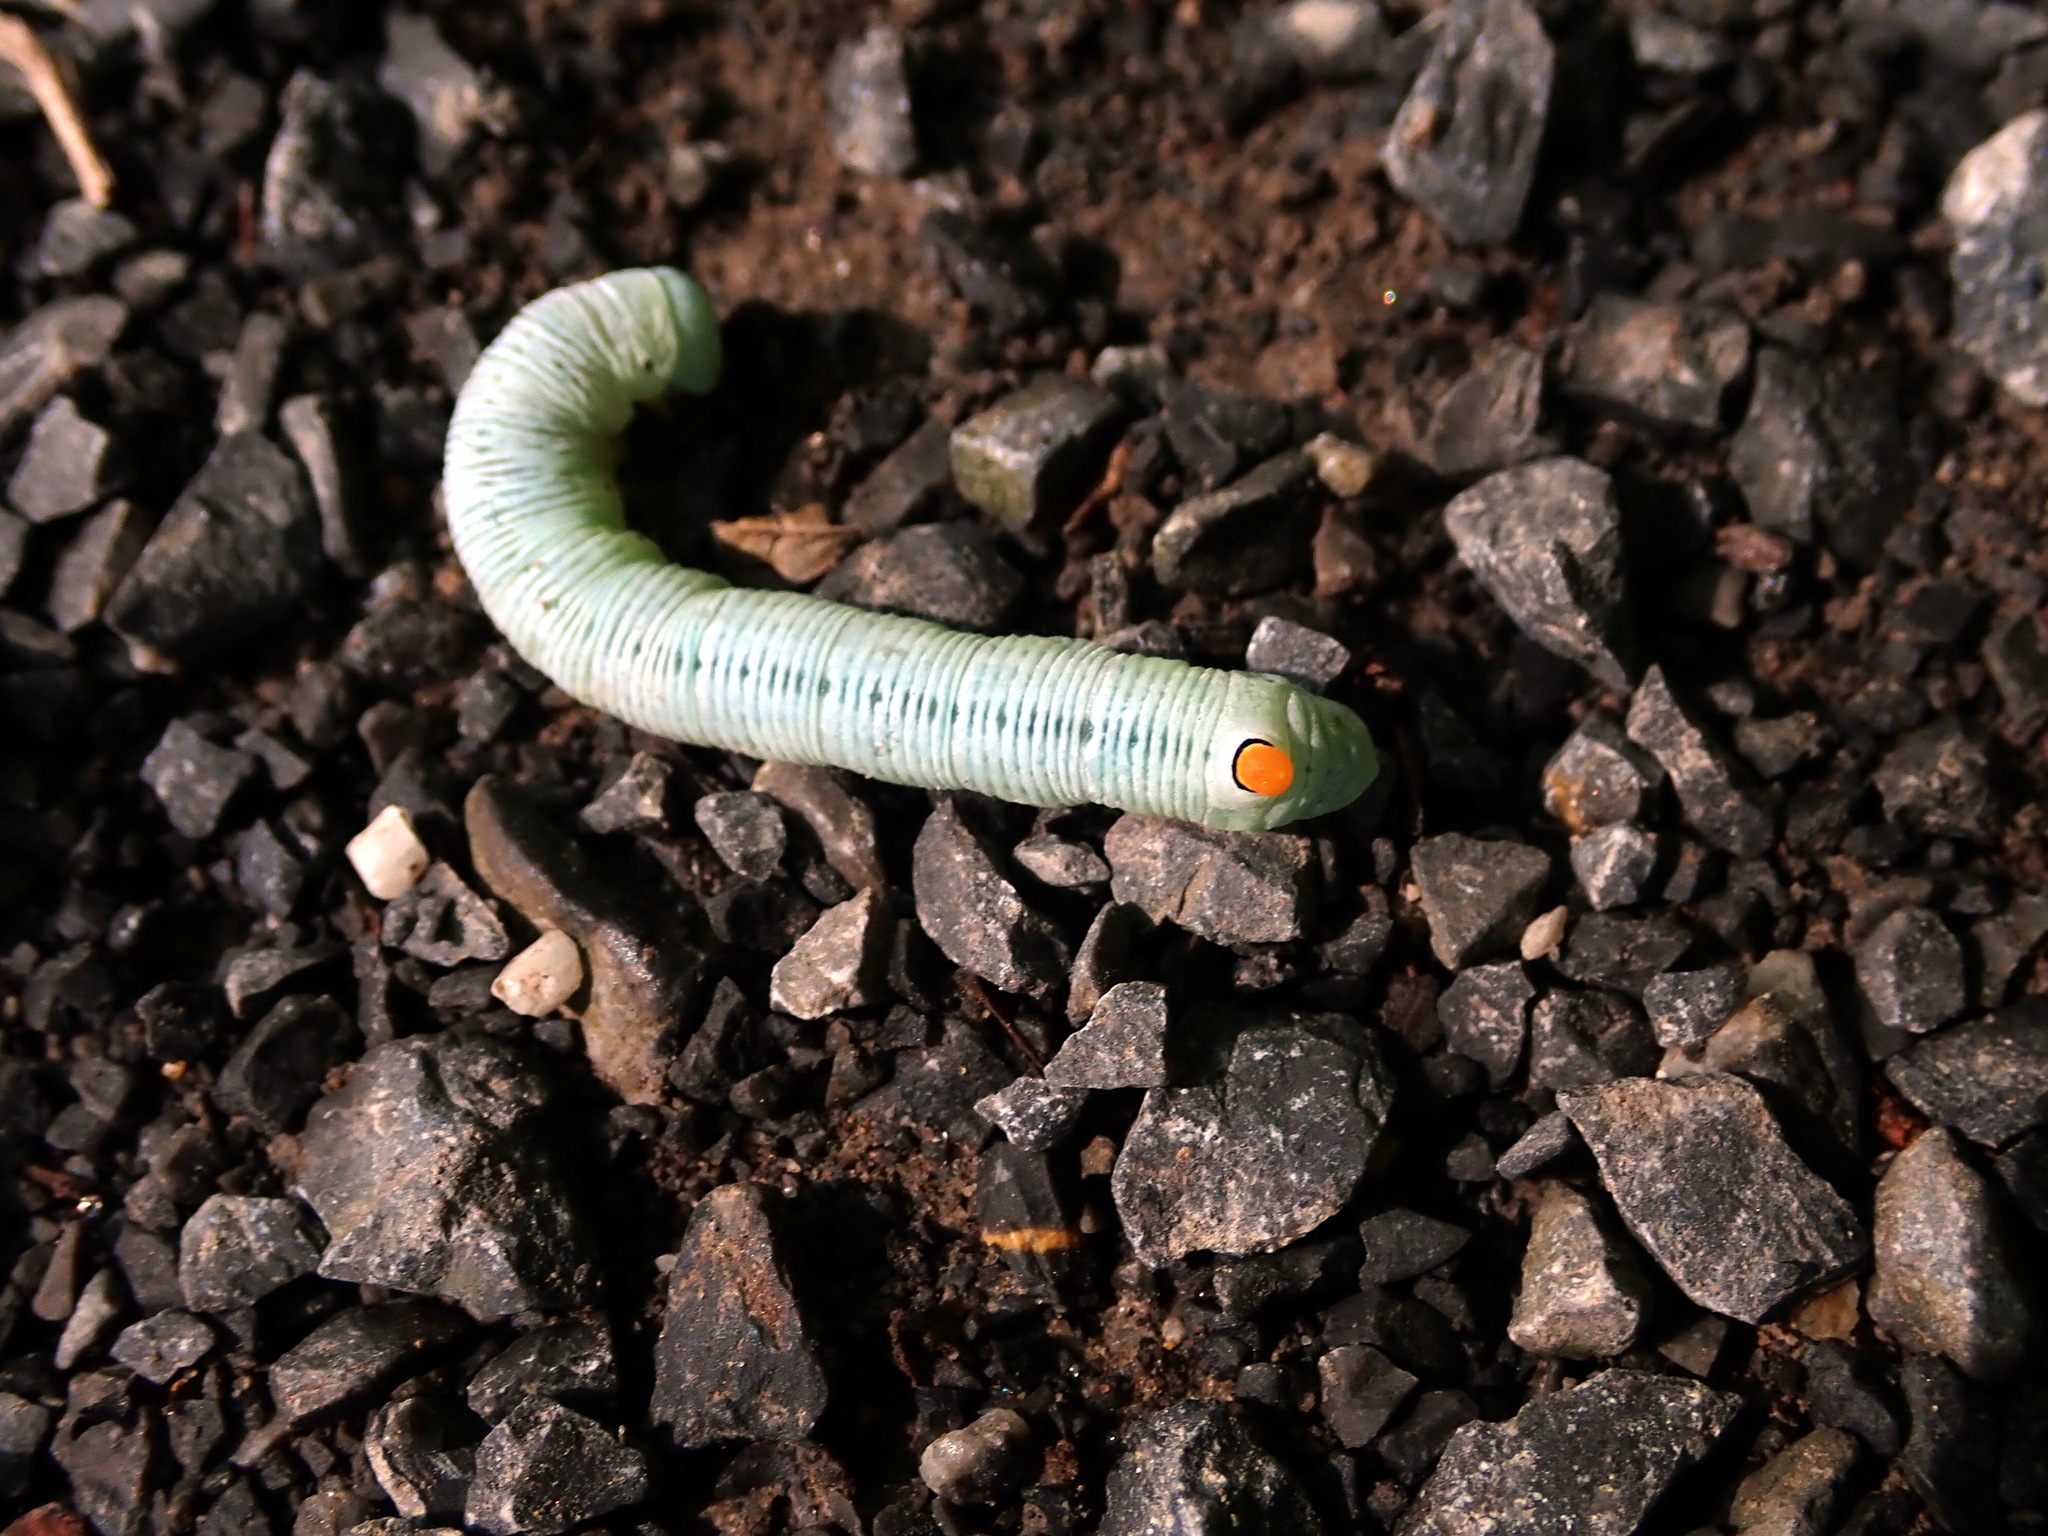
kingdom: Animalia
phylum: Arthropoda
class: Insecta
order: Lepidoptera
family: Sphingidae
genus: Sphecodina
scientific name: Sphecodina abbottii
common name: Abbott's sphinx
